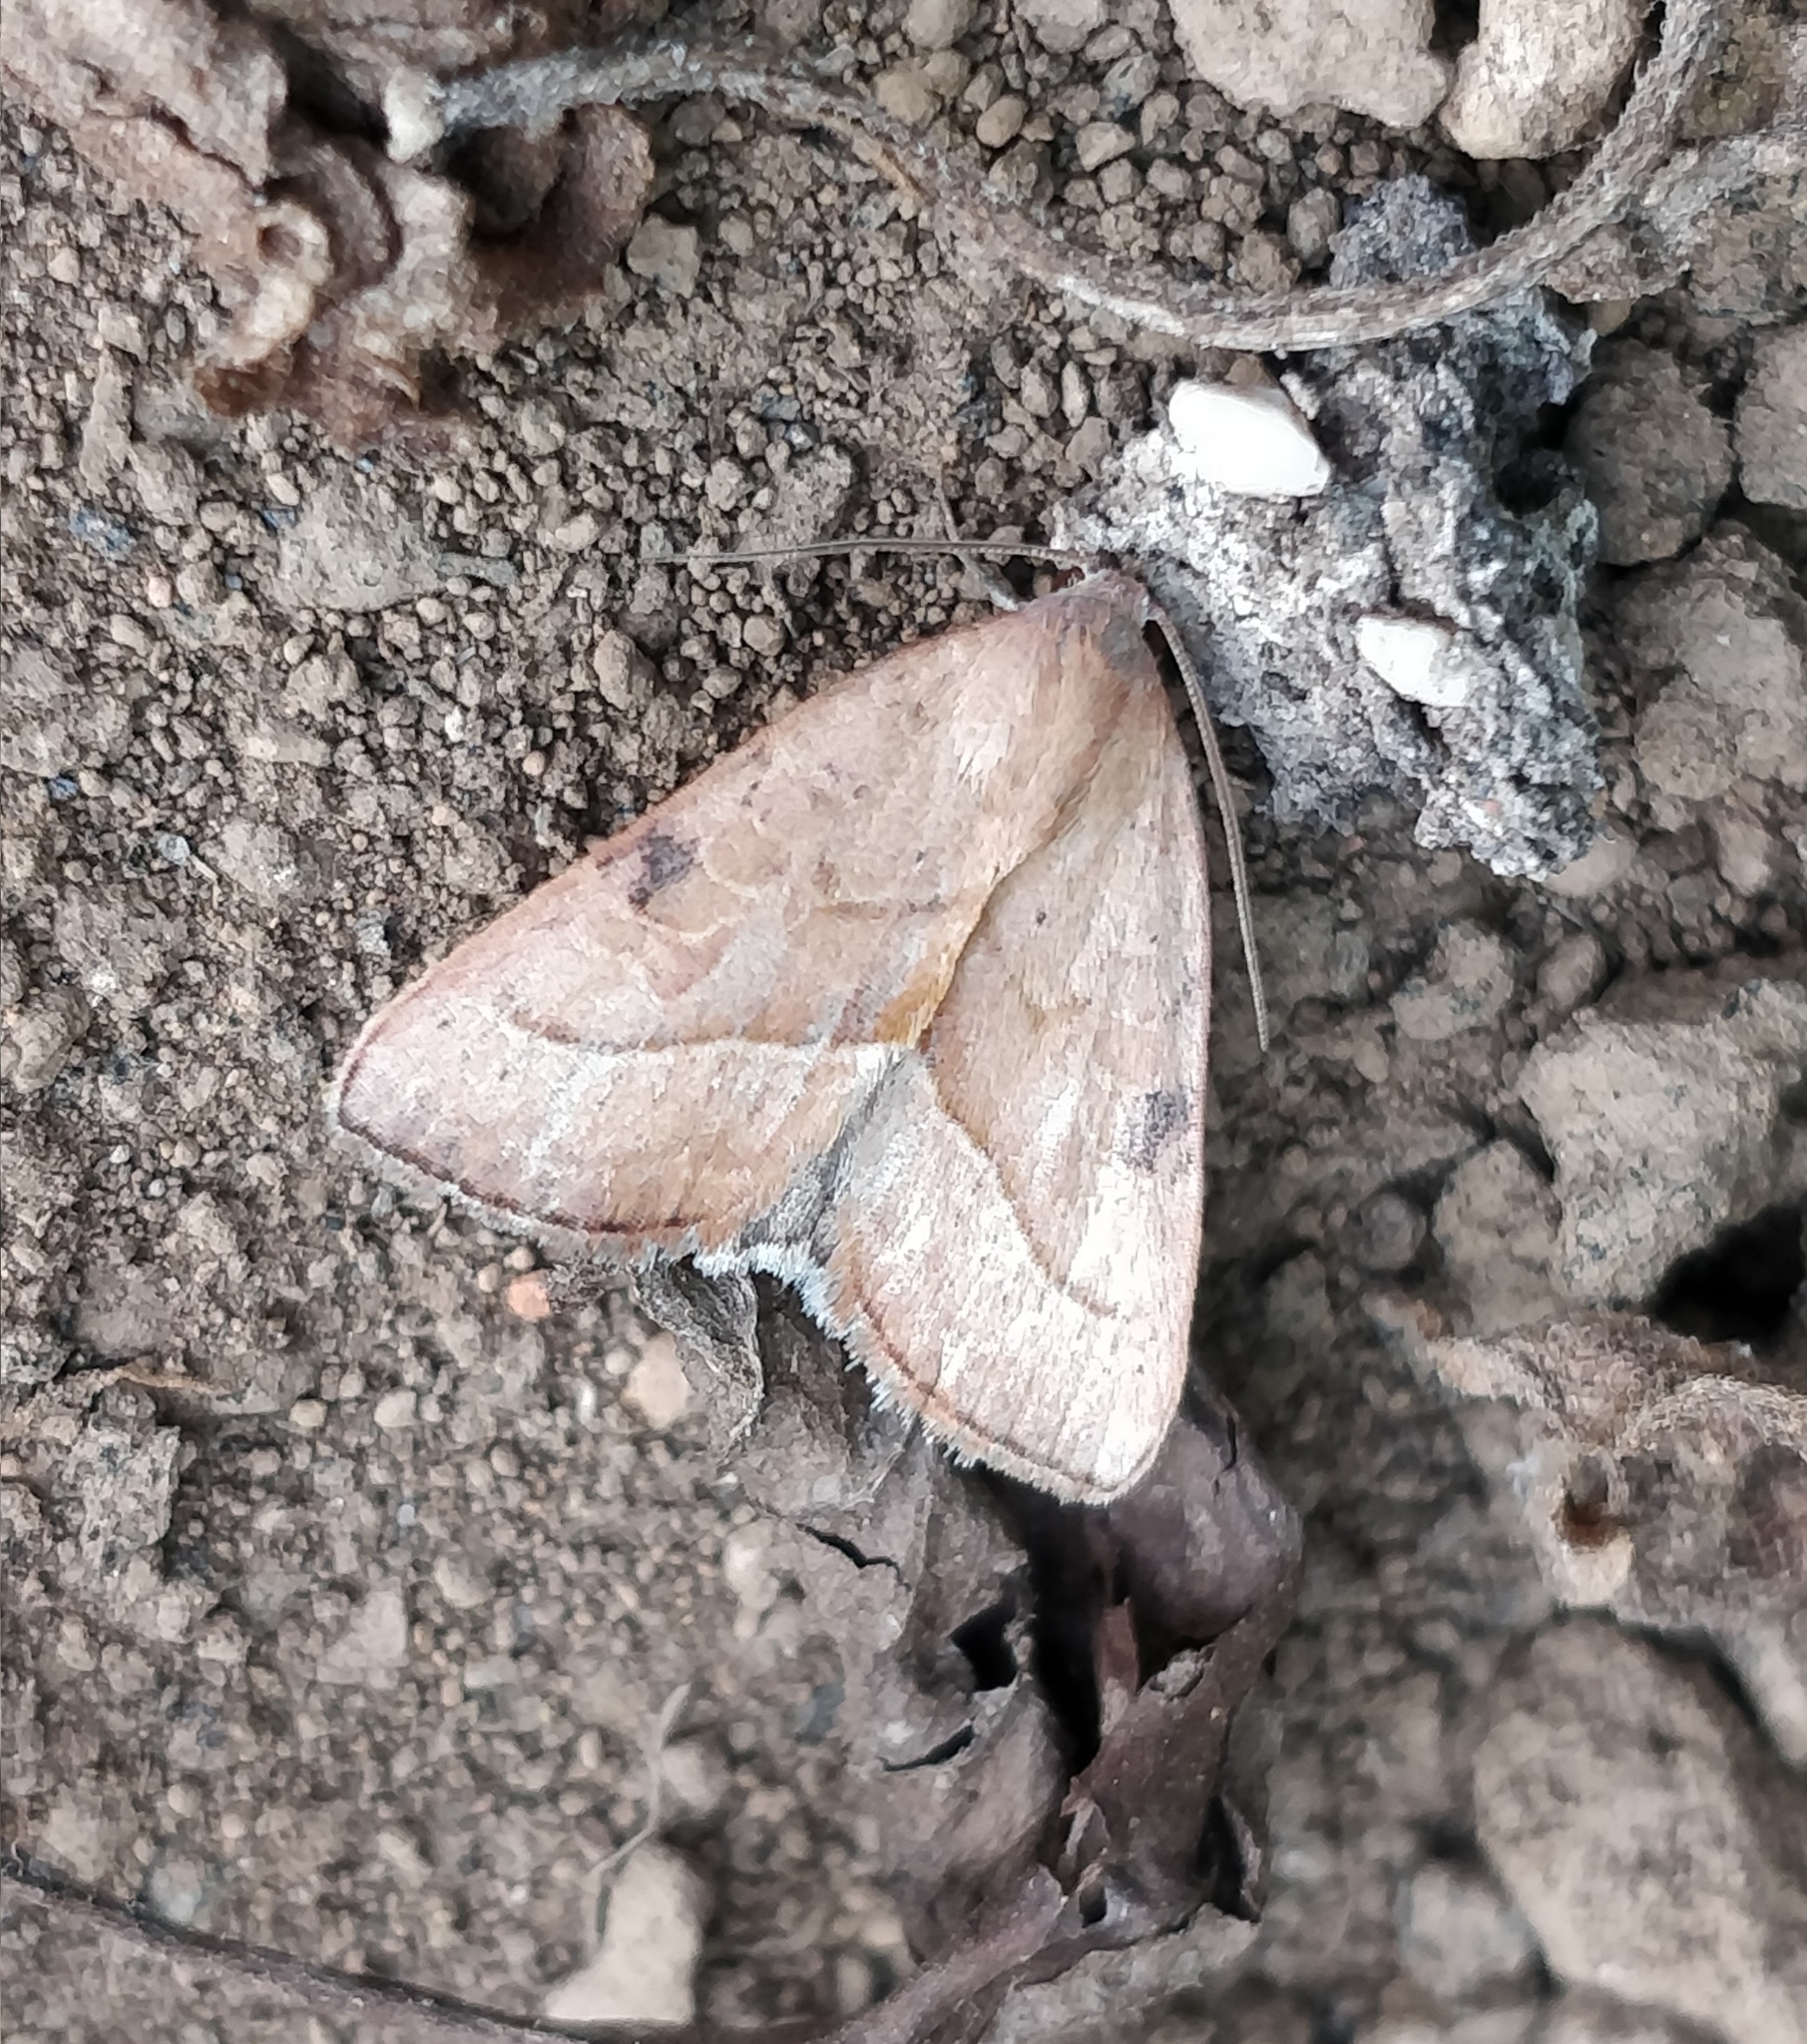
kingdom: Animalia
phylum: Arthropoda
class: Insecta
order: Lepidoptera
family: Noctuidae
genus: Galgula
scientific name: Galgula partita
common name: Wedgeling
